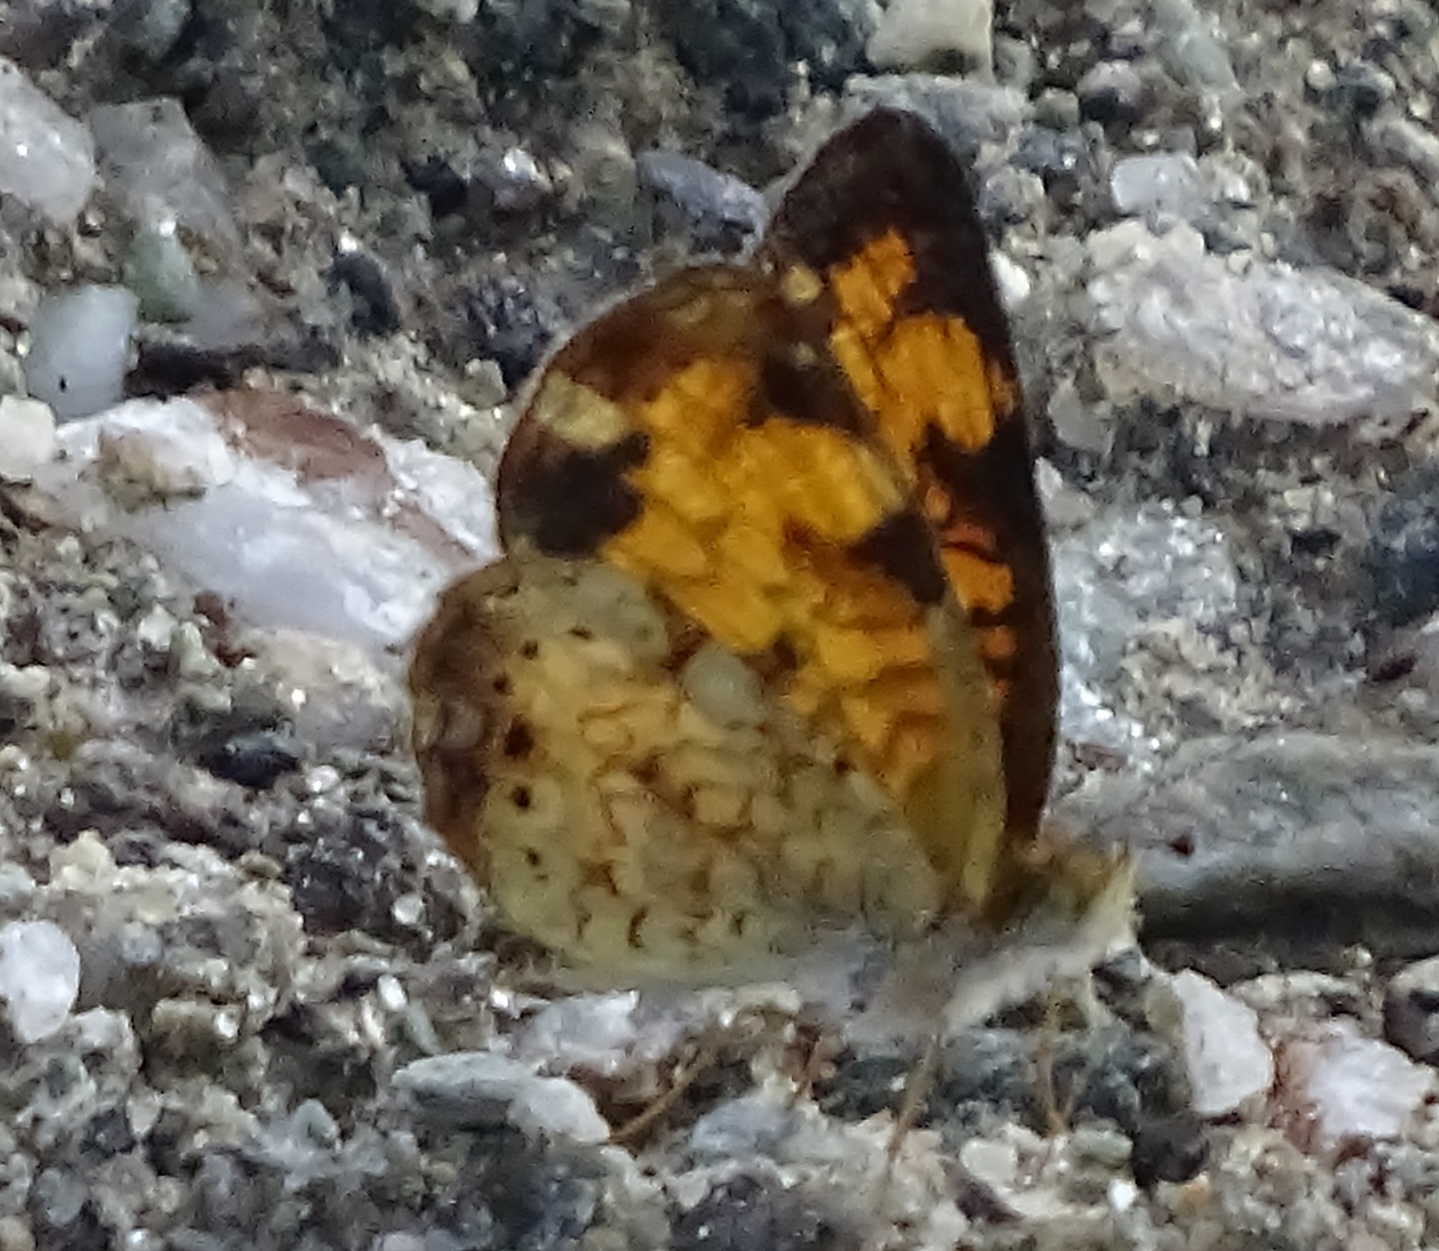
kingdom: Animalia
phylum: Arthropoda
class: Insecta
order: Lepidoptera
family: Nymphalidae
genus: Phyciodes
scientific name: Phyciodes tharos
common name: Pearl crescent
